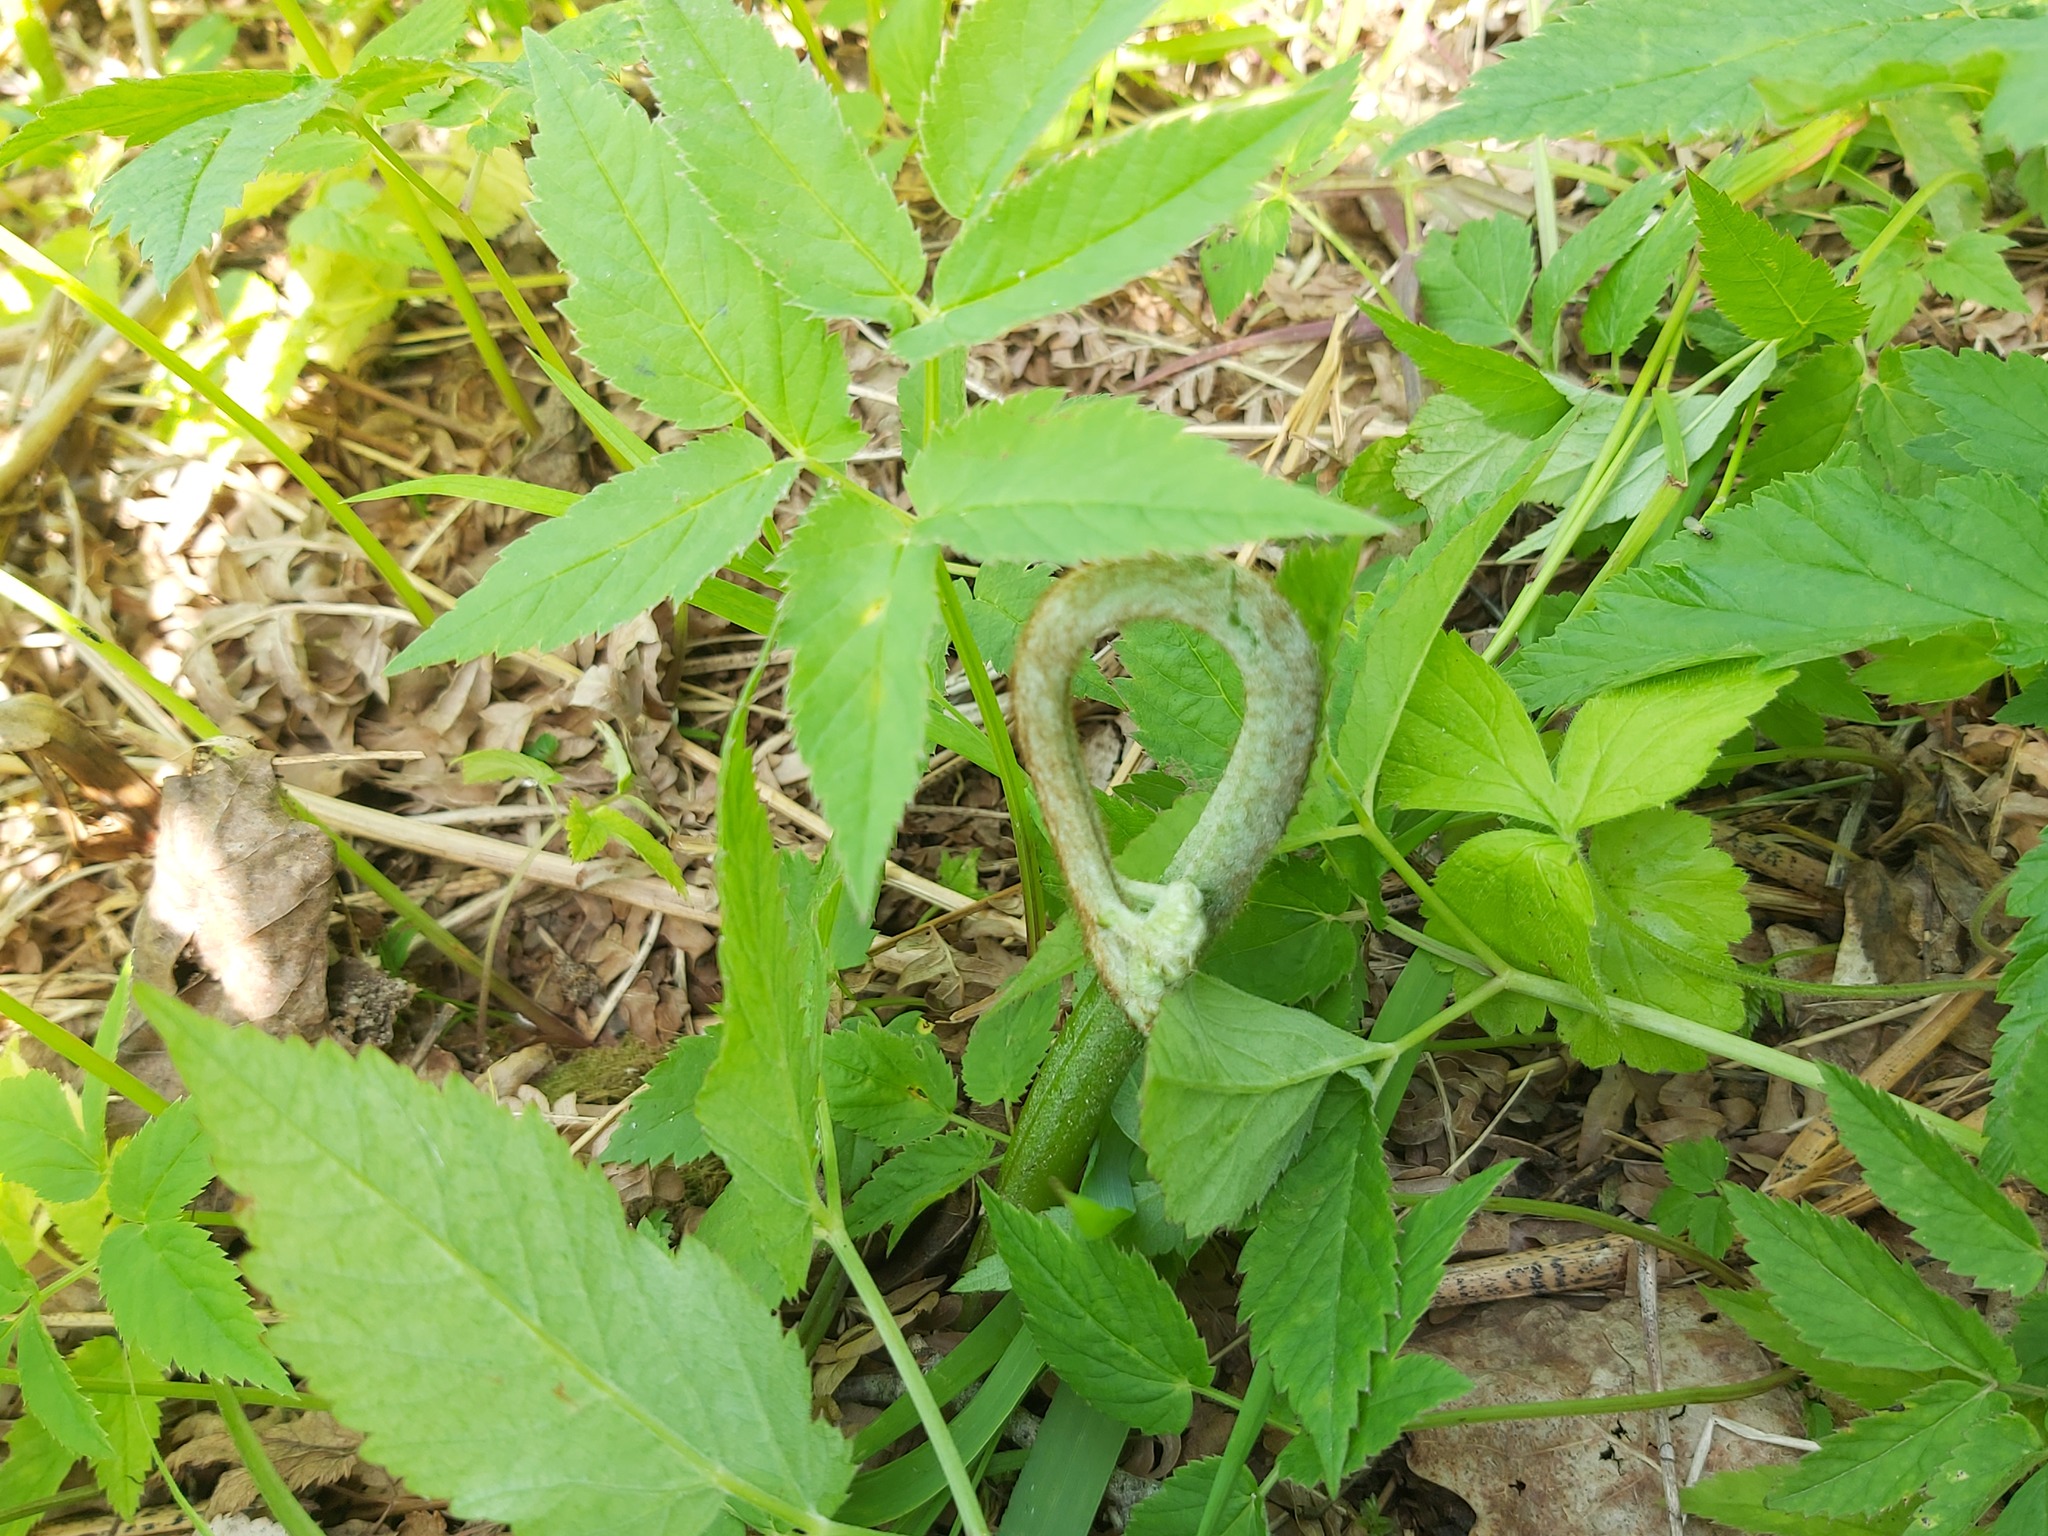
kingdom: Plantae
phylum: Tracheophyta
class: Polypodiopsida
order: Polypodiales
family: Dennstaedtiaceae
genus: Pteridium
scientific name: Pteridium aquilinum
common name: Bracken
